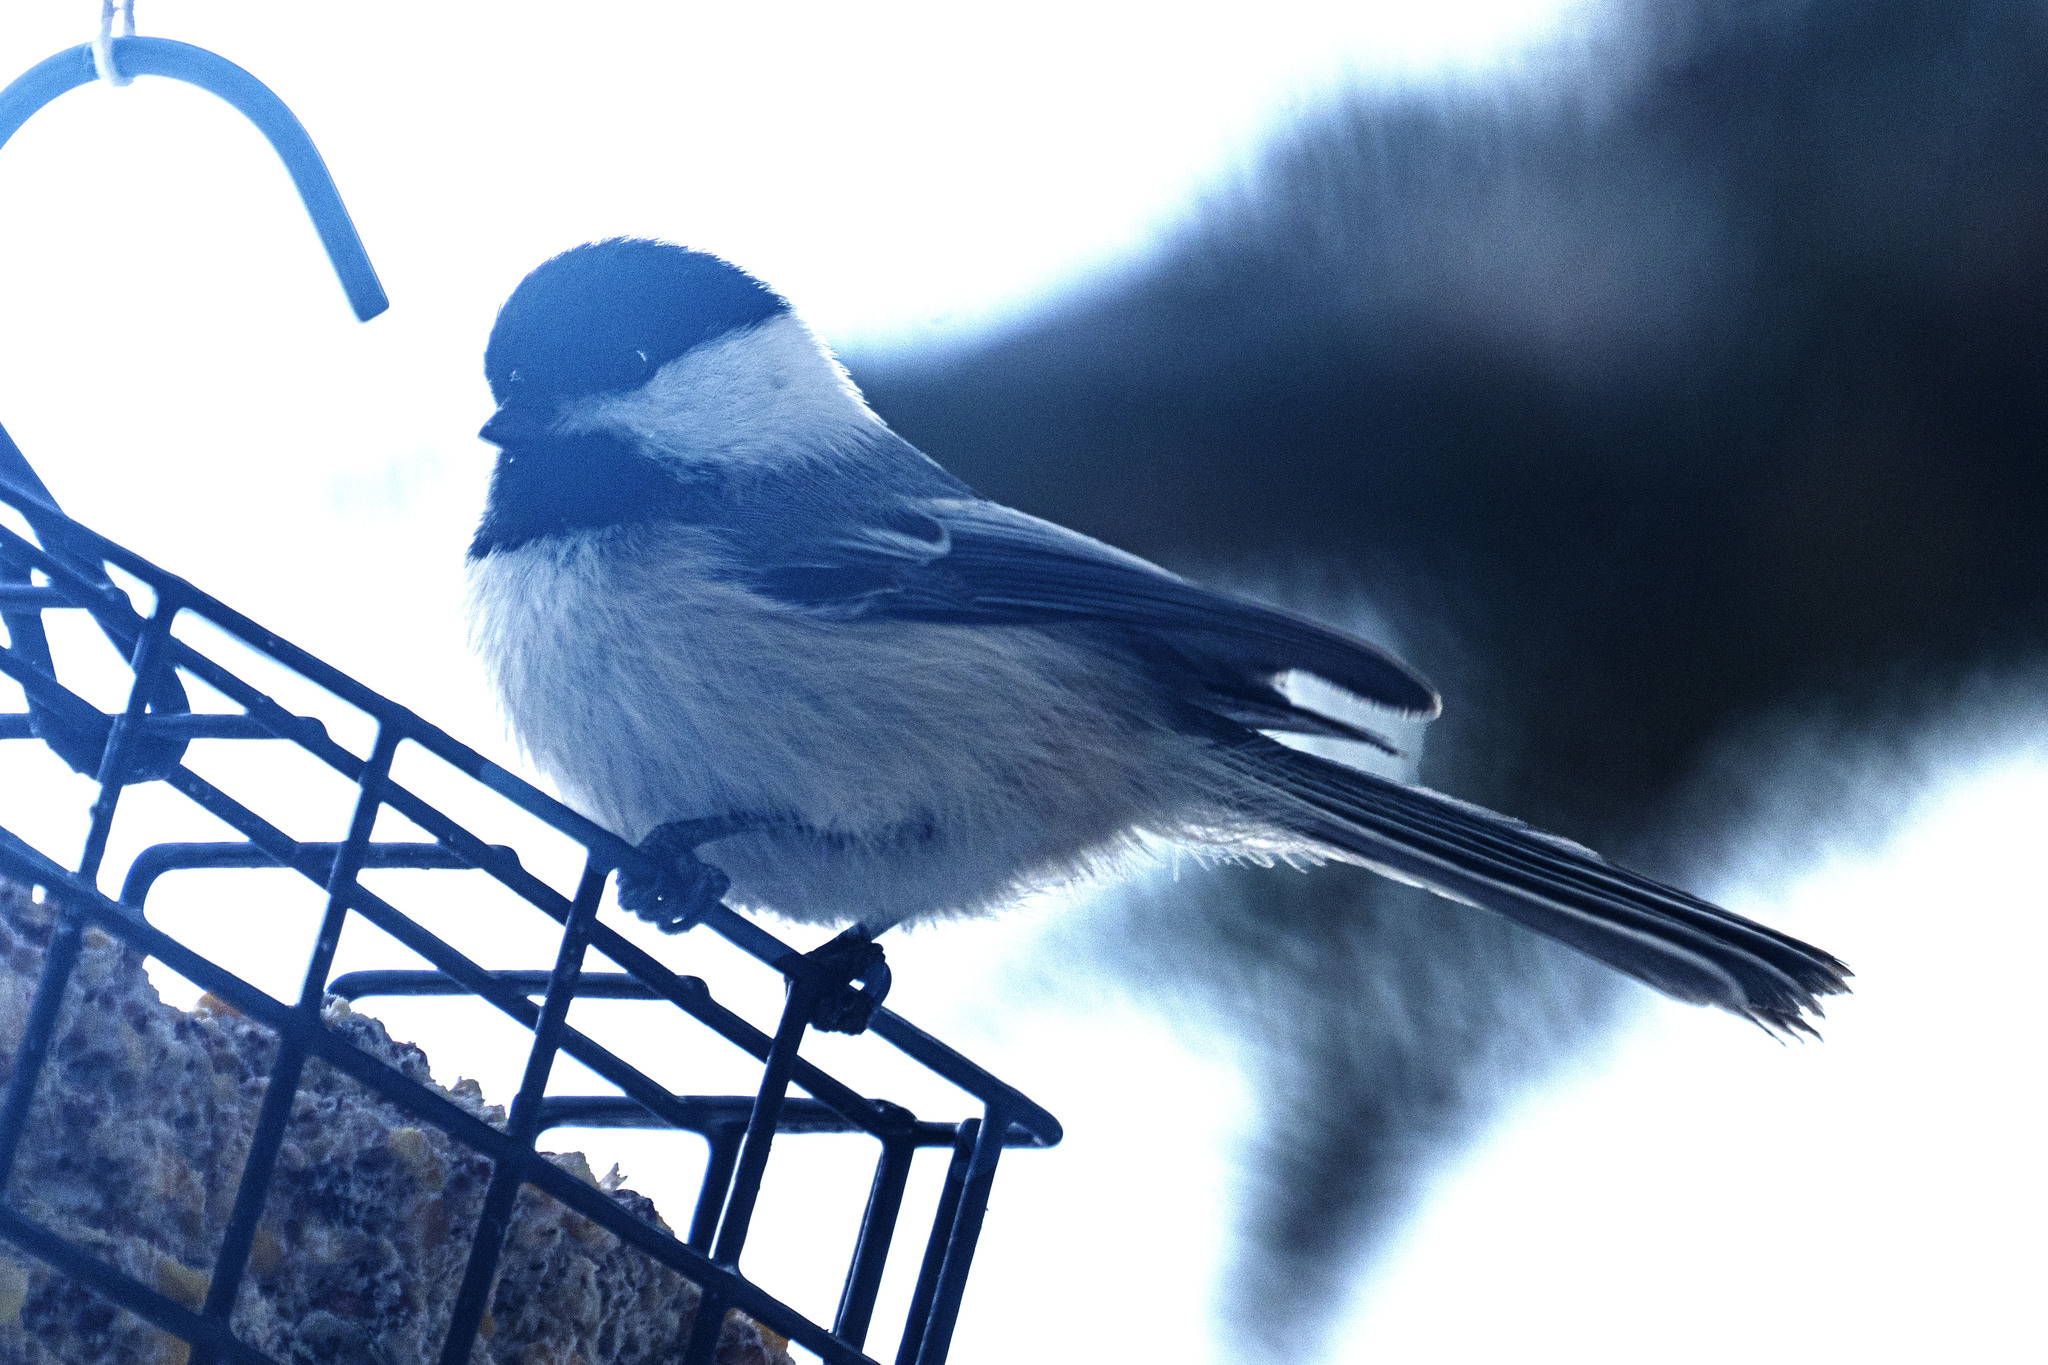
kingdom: Animalia
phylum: Chordata
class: Aves
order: Passeriformes
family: Paridae
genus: Poecile
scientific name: Poecile atricapillus
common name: Black-capped chickadee
